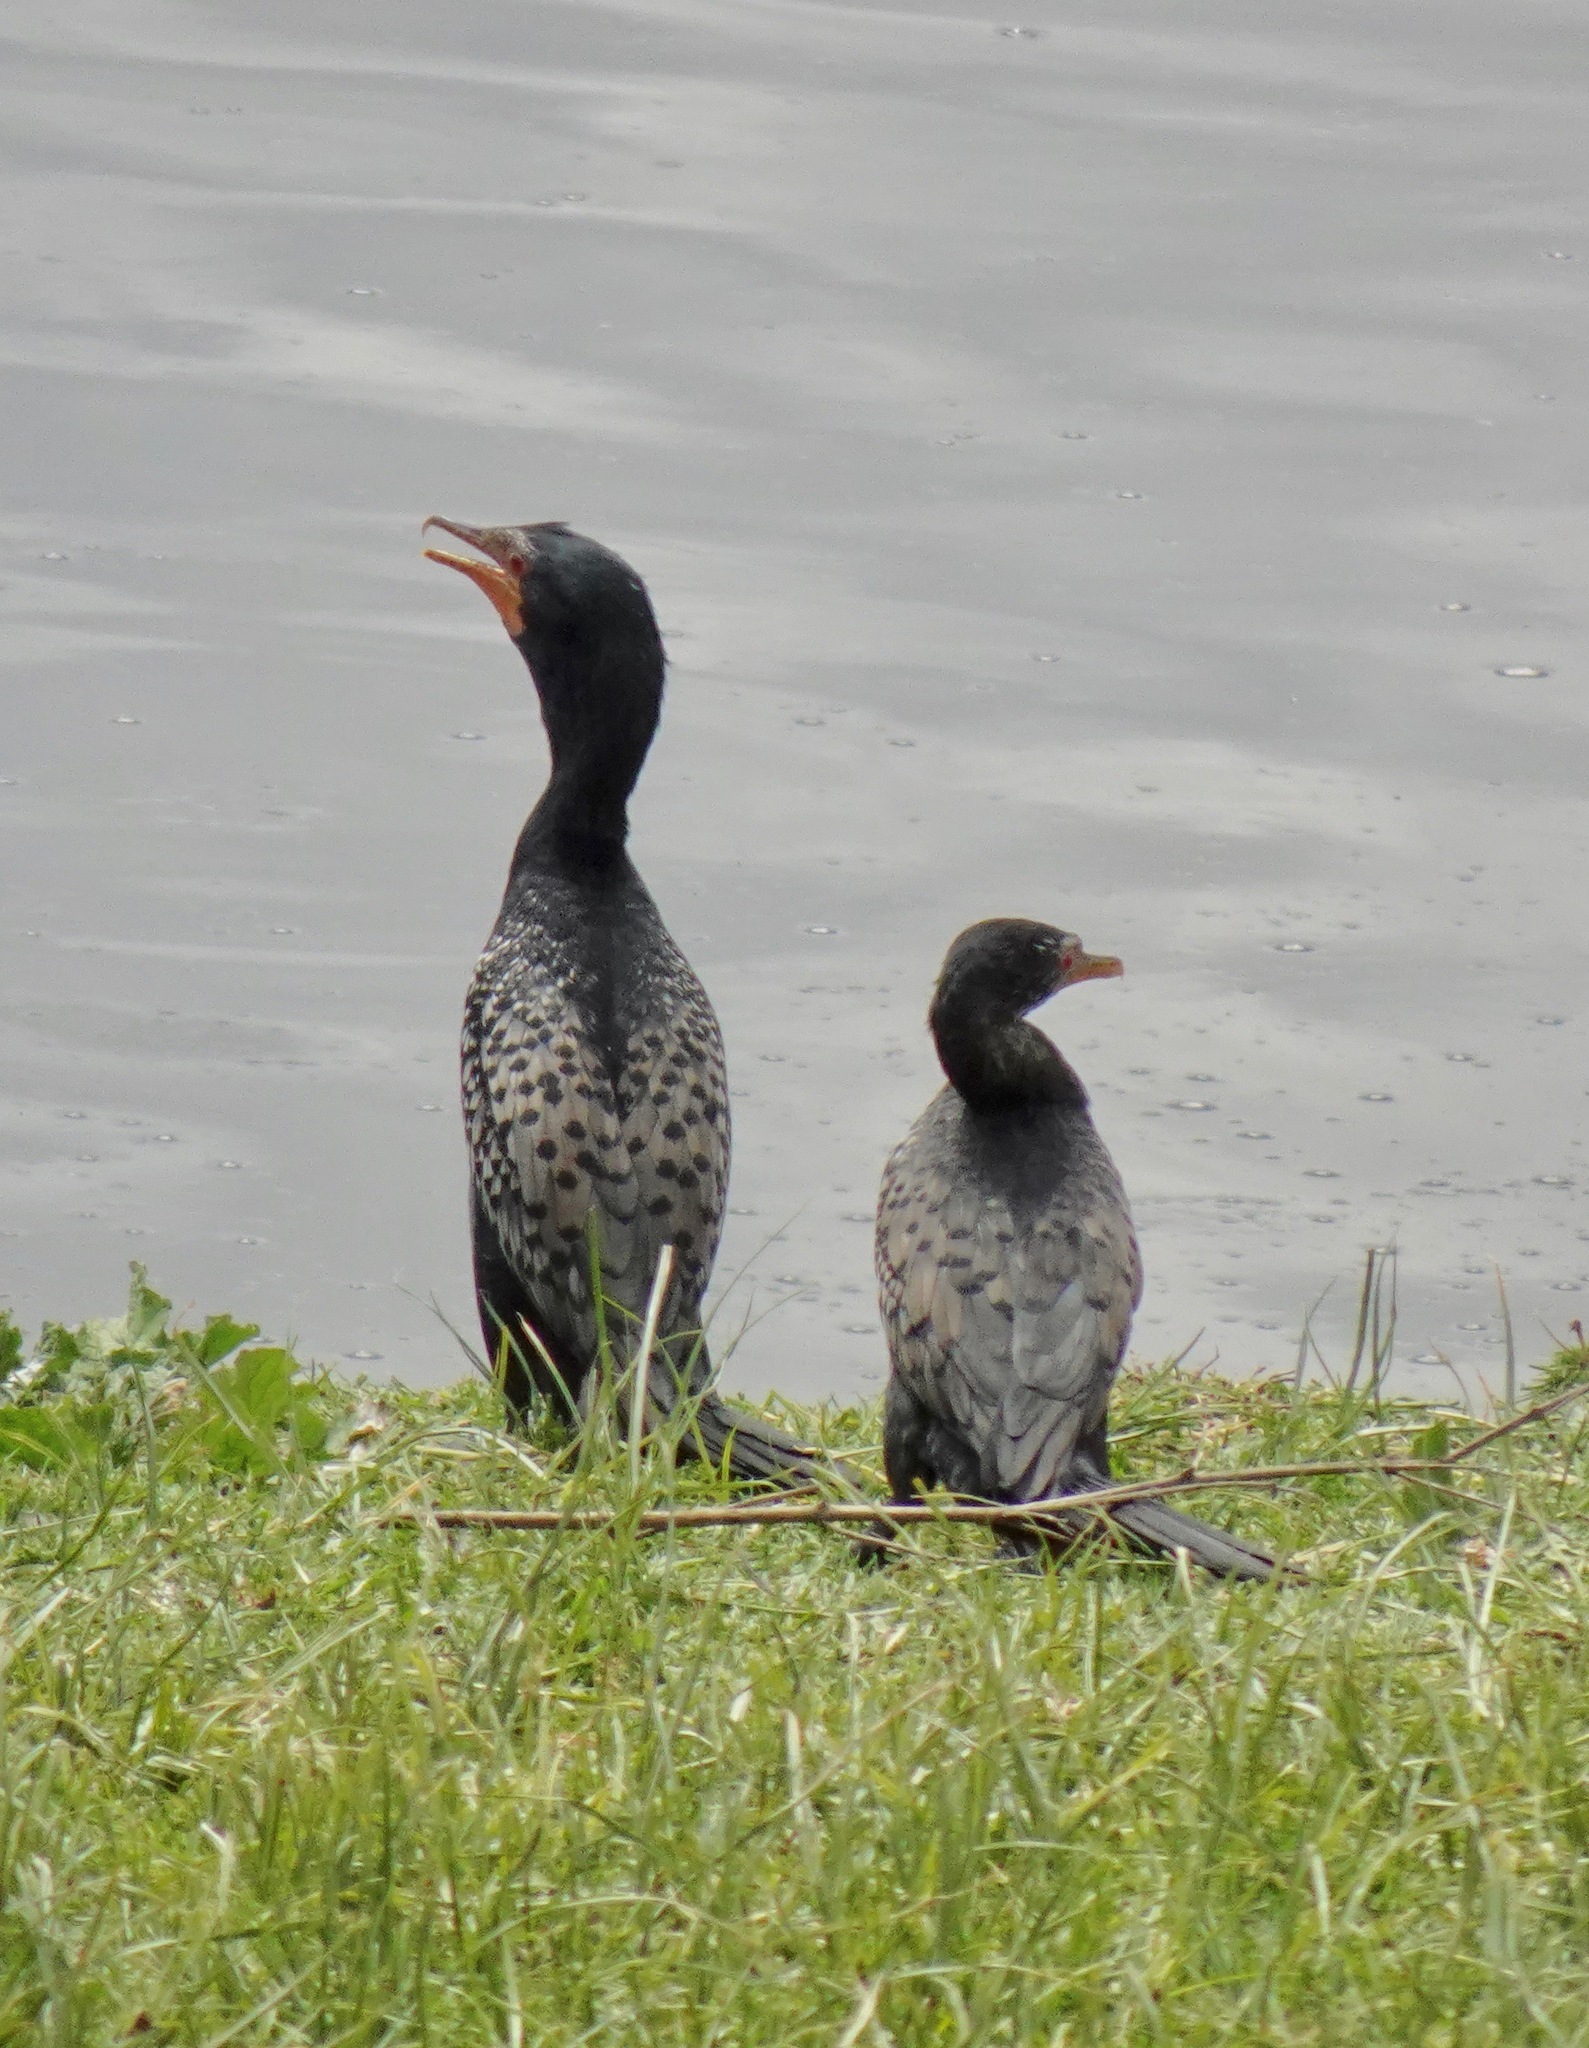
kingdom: Animalia
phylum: Chordata
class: Aves
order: Suliformes
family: Phalacrocoracidae
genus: Microcarbo
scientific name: Microcarbo africanus
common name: Long-tailed cormorant
